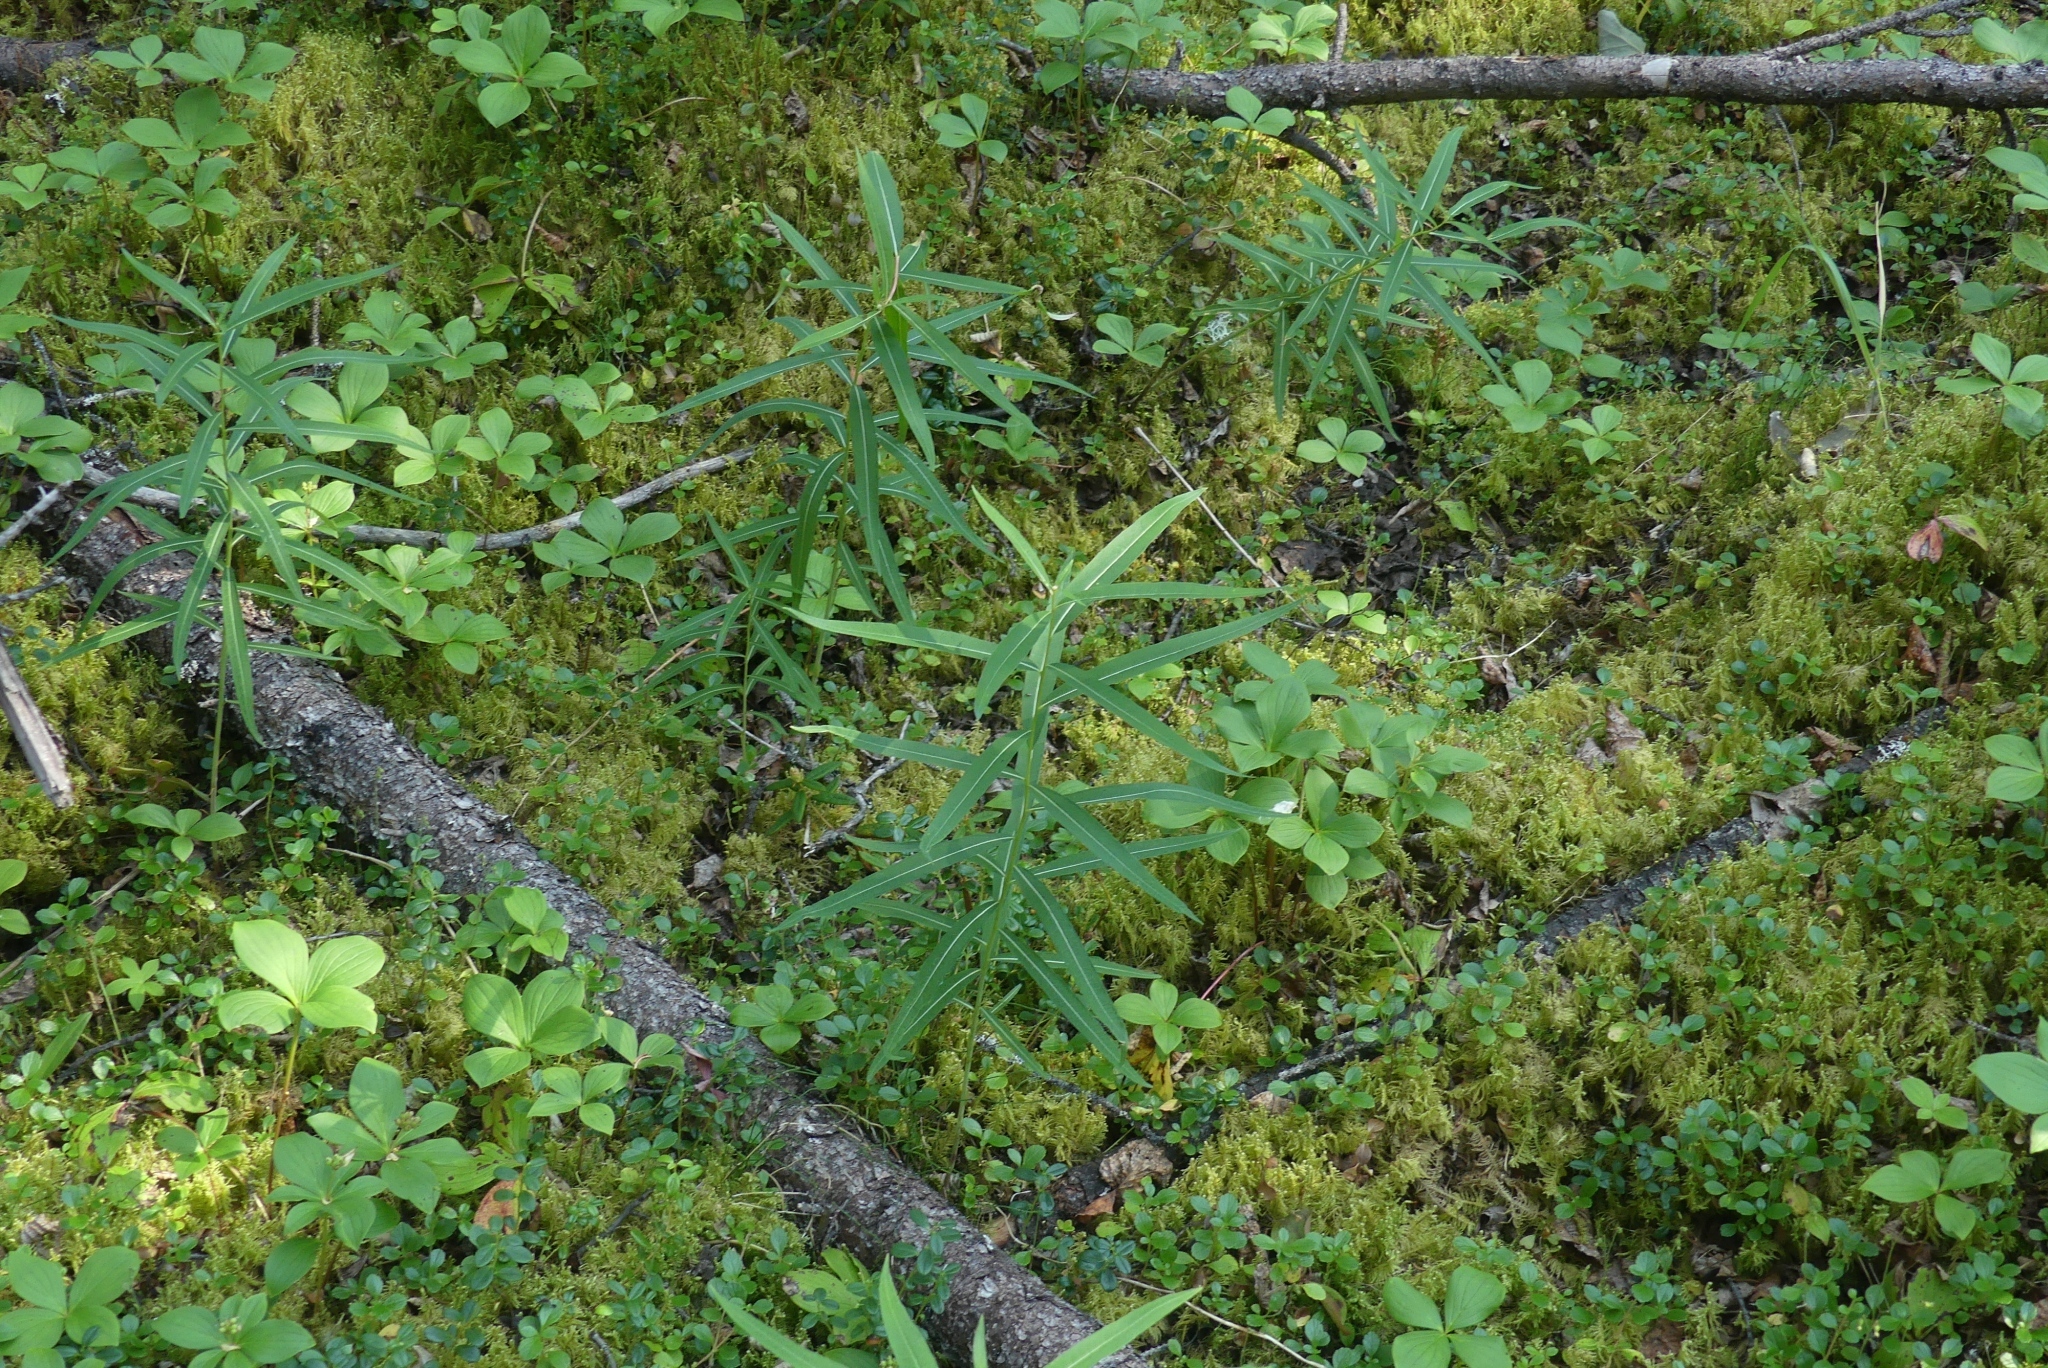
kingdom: Plantae
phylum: Tracheophyta
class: Magnoliopsida
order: Myrtales
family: Onagraceae
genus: Chamaenerion
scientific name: Chamaenerion angustifolium
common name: Fireweed
